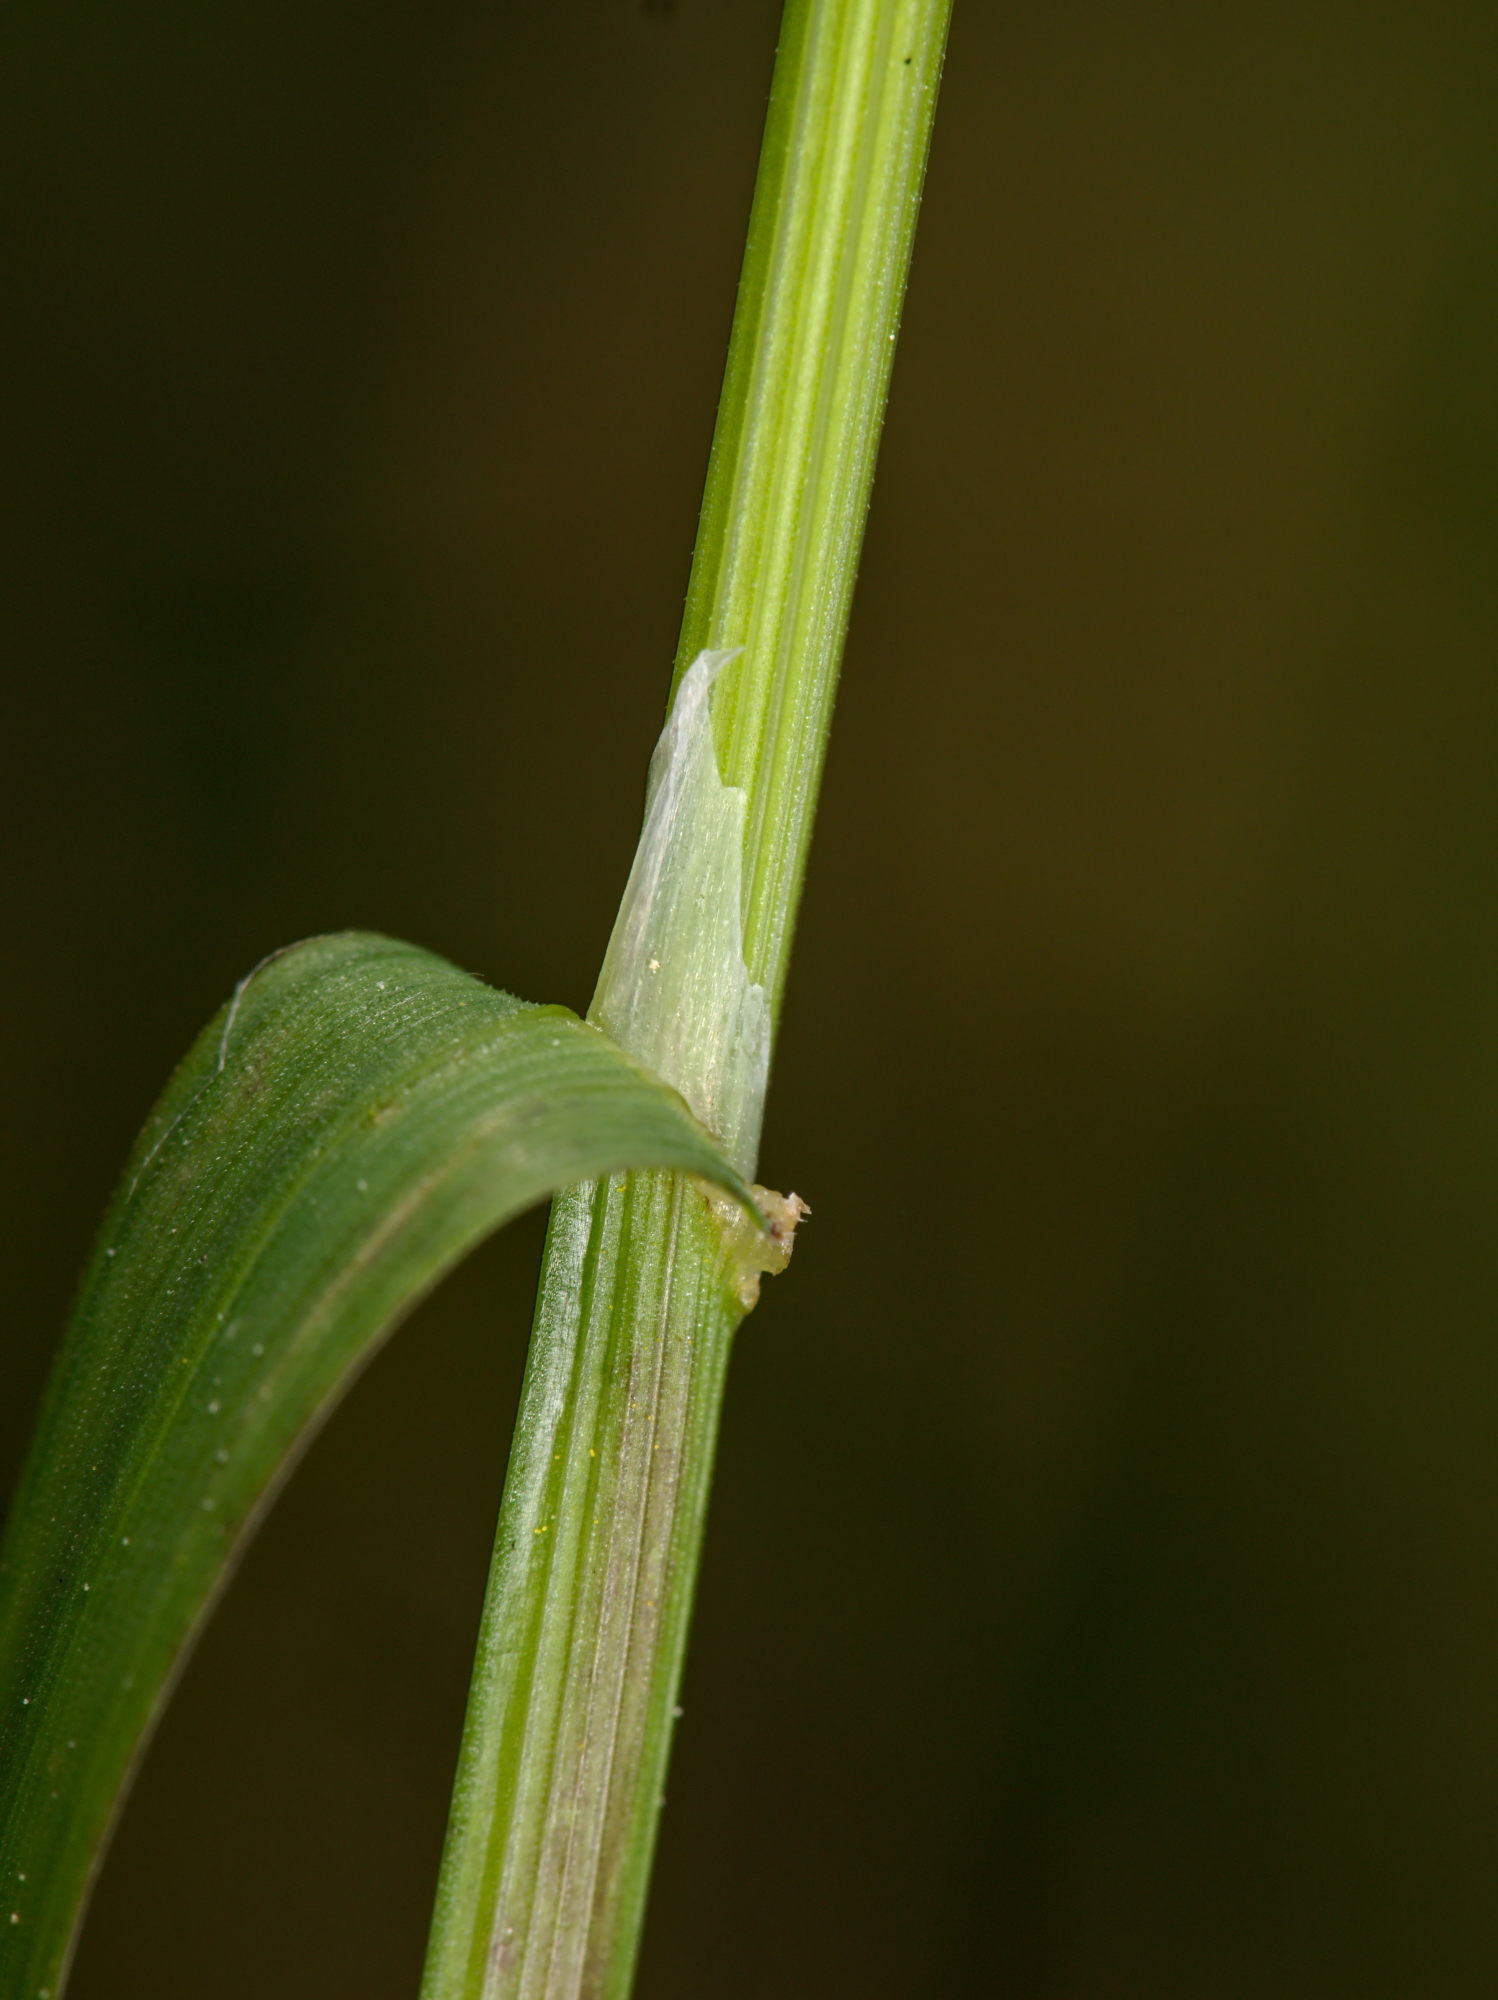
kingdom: Plantae
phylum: Tracheophyta
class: Liliopsida
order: Poales
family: Poaceae
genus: Poa
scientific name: Poa trivialis
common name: Rough bluegrass
